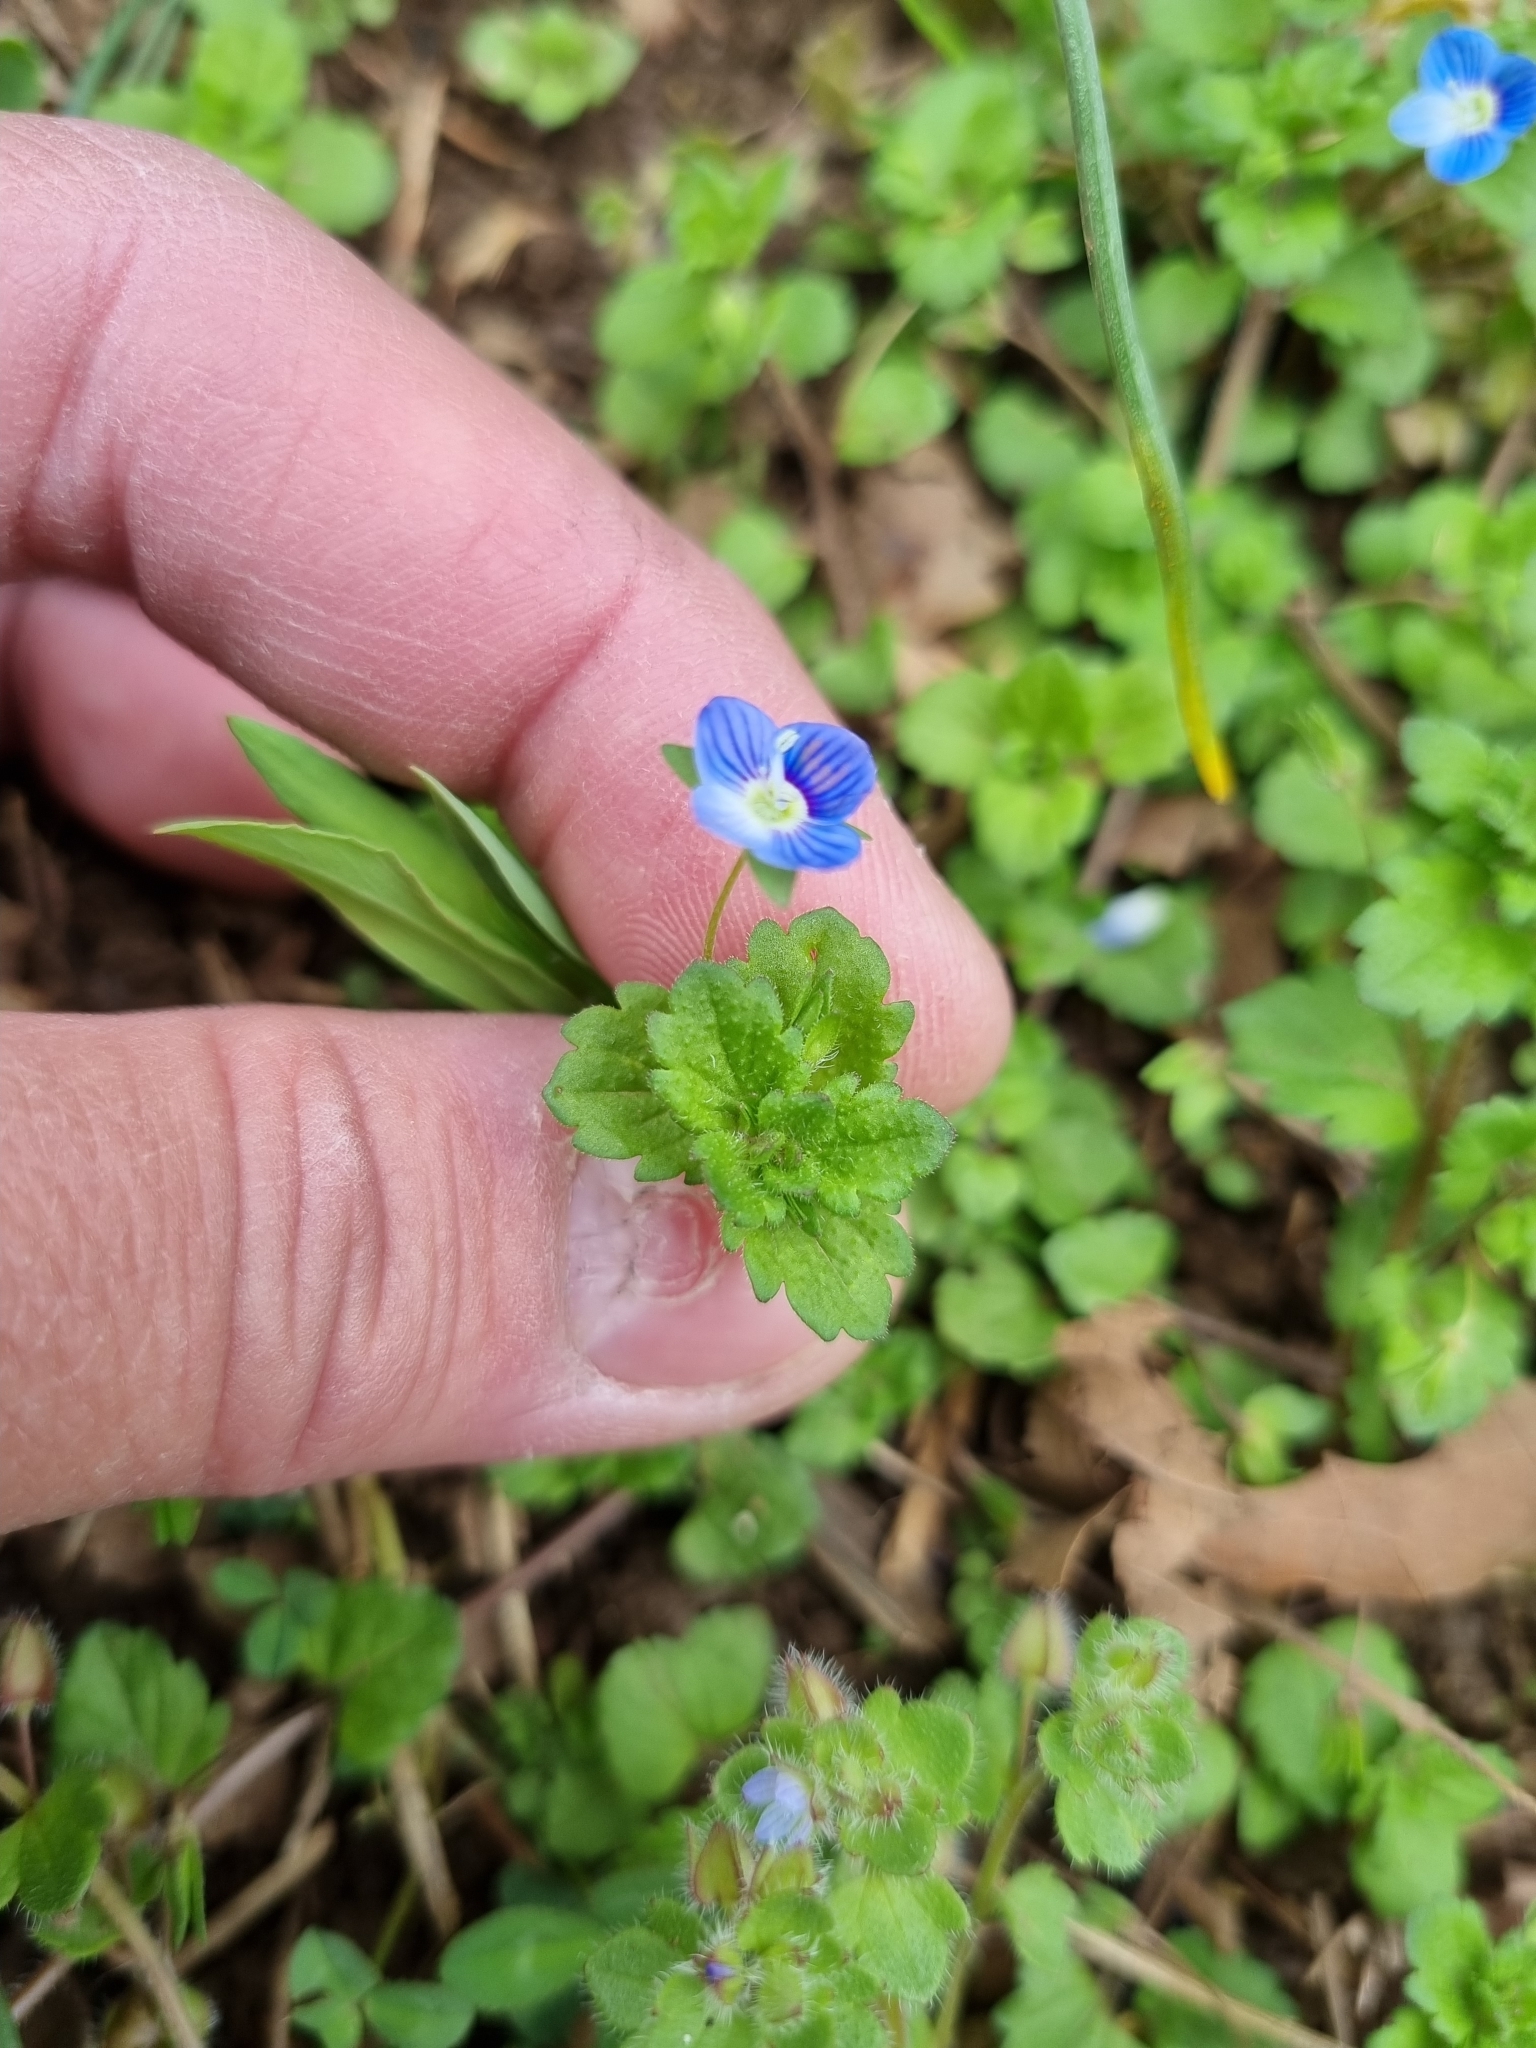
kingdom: Plantae
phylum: Tracheophyta
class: Magnoliopsida
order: Lamiales
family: Plantaginaceae
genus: Veronica
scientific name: Veronica persica
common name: Common field-speedwell
